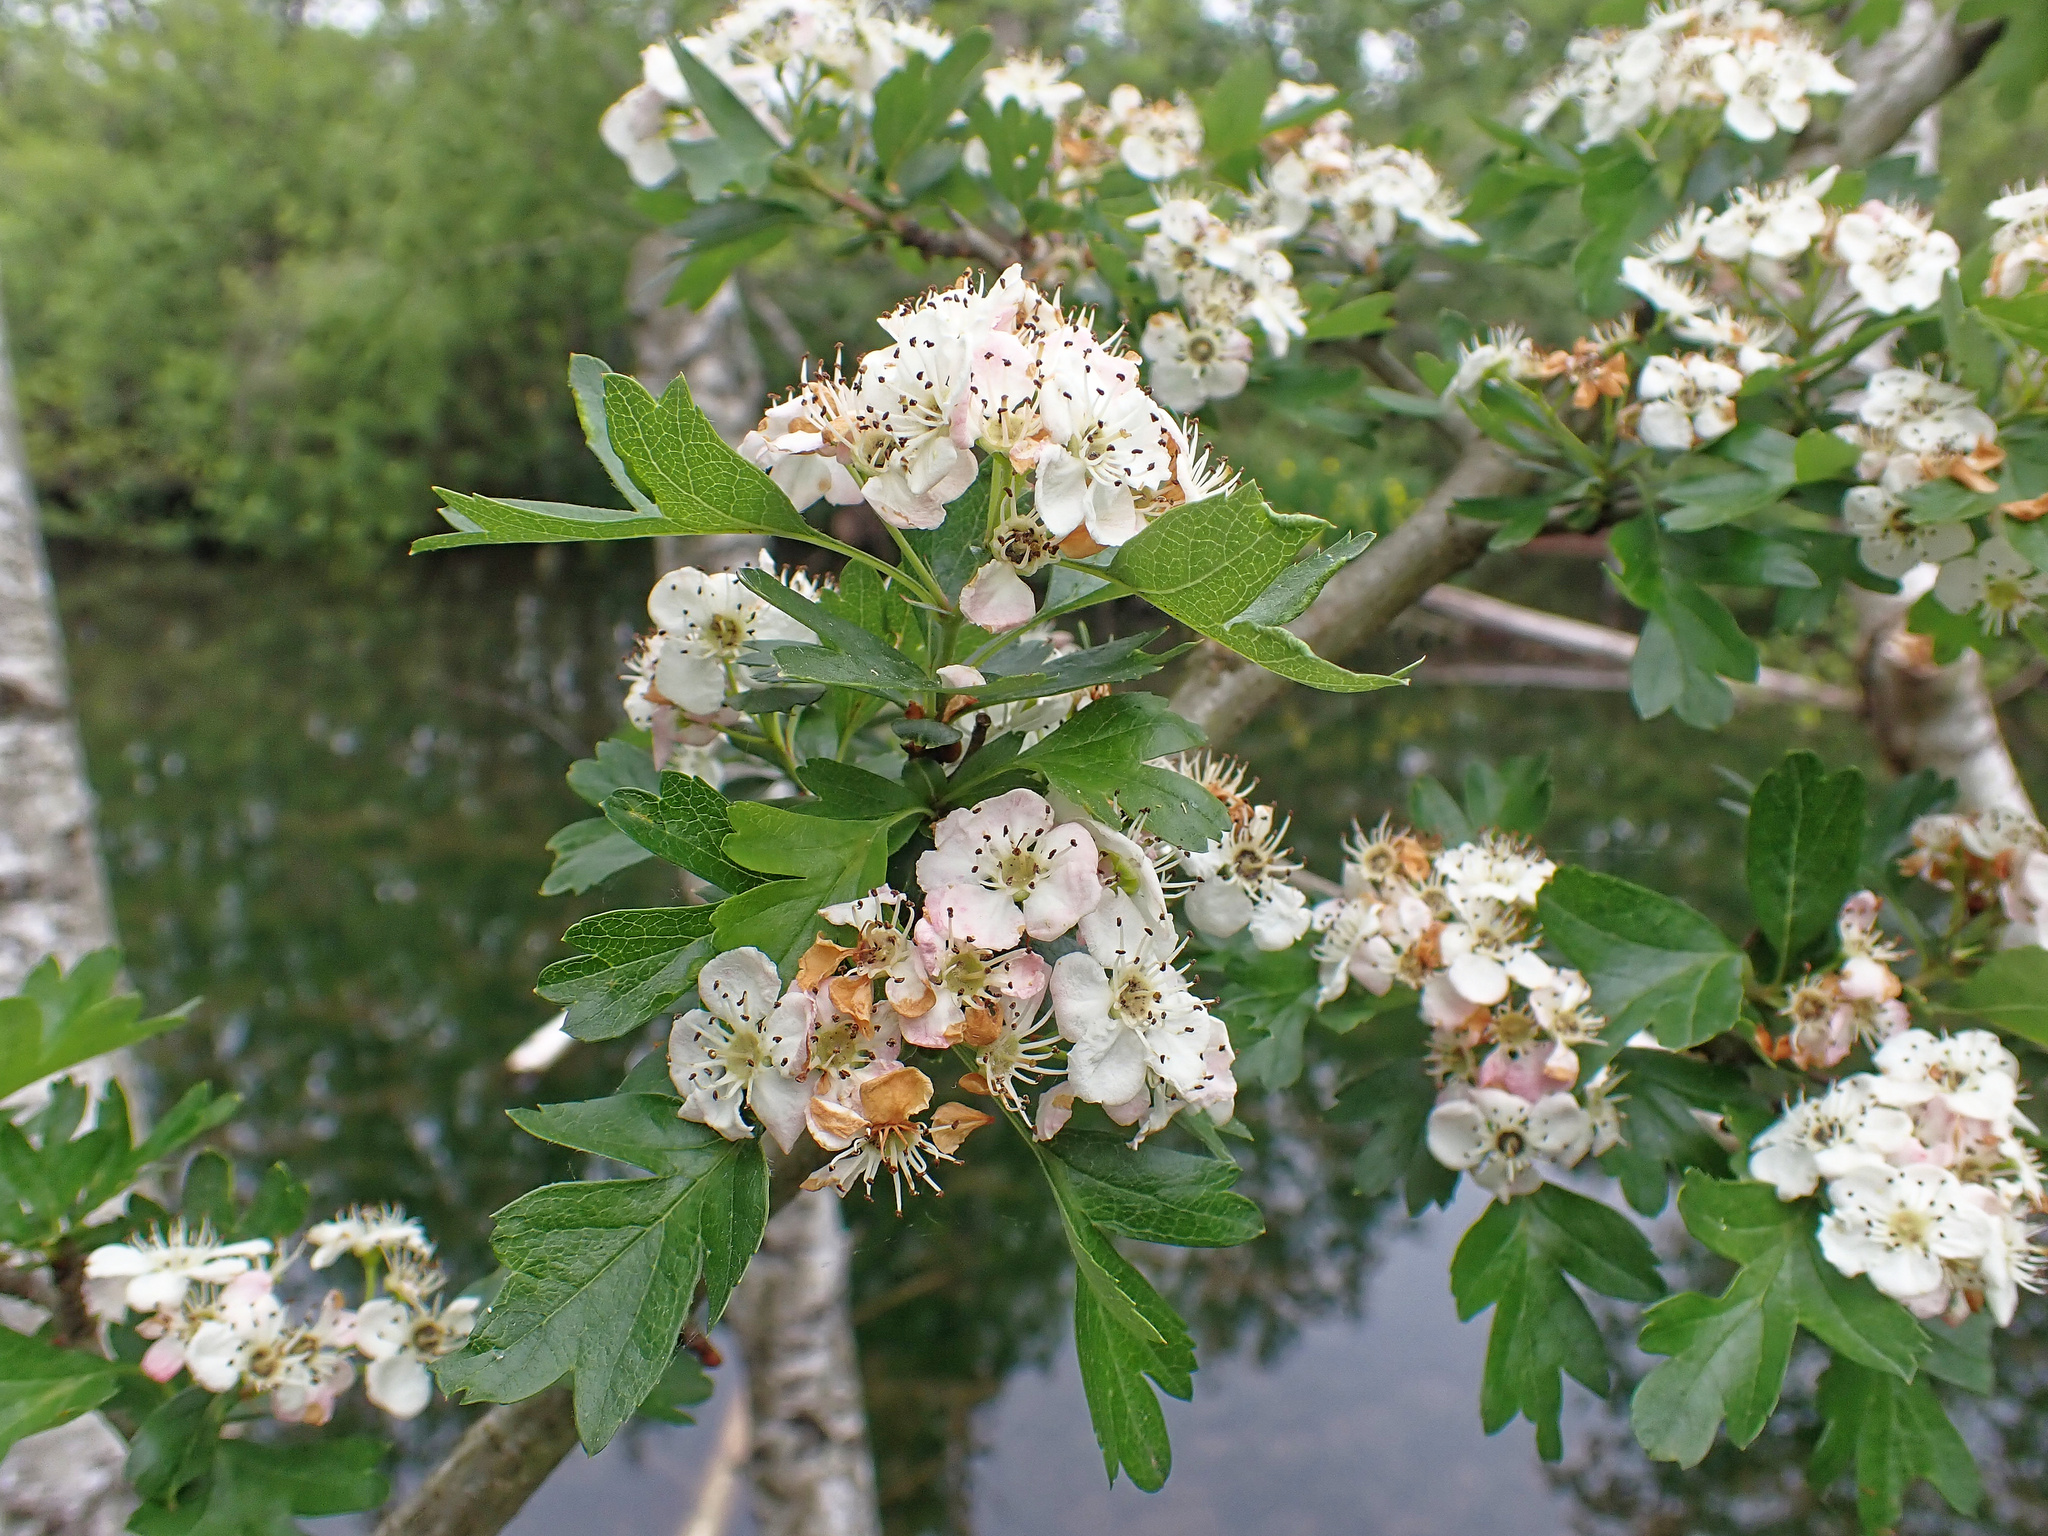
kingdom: Plantae
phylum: Tracheophyta
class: Magnoliopsida
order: Rosales
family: Rosaceae
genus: Crataegus
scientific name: Crataegus monogyna
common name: Hawthorn
